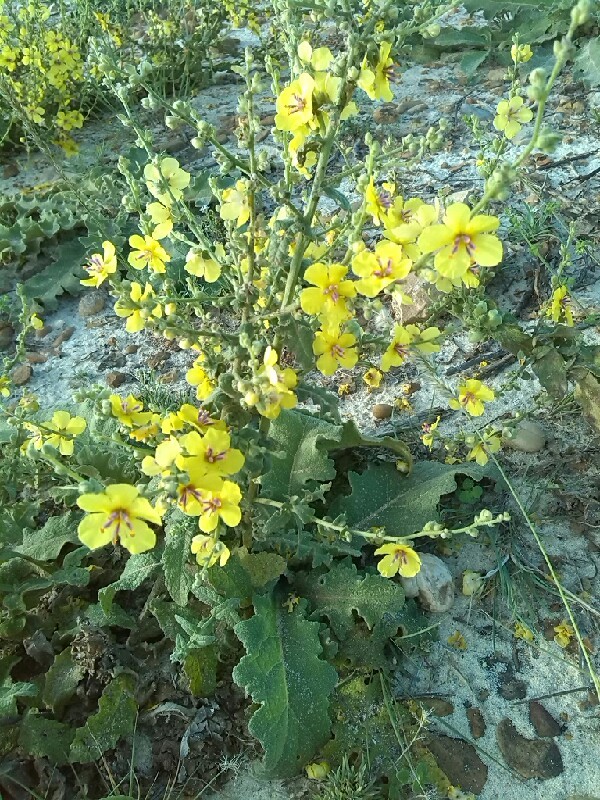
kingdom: Plantae
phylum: Tracheophyta
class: Magnoliopsida
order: Lamiales
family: Scrophulariaceae
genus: Verbascum
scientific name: Verbascum sinuatum
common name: Wavyleaf mullein
